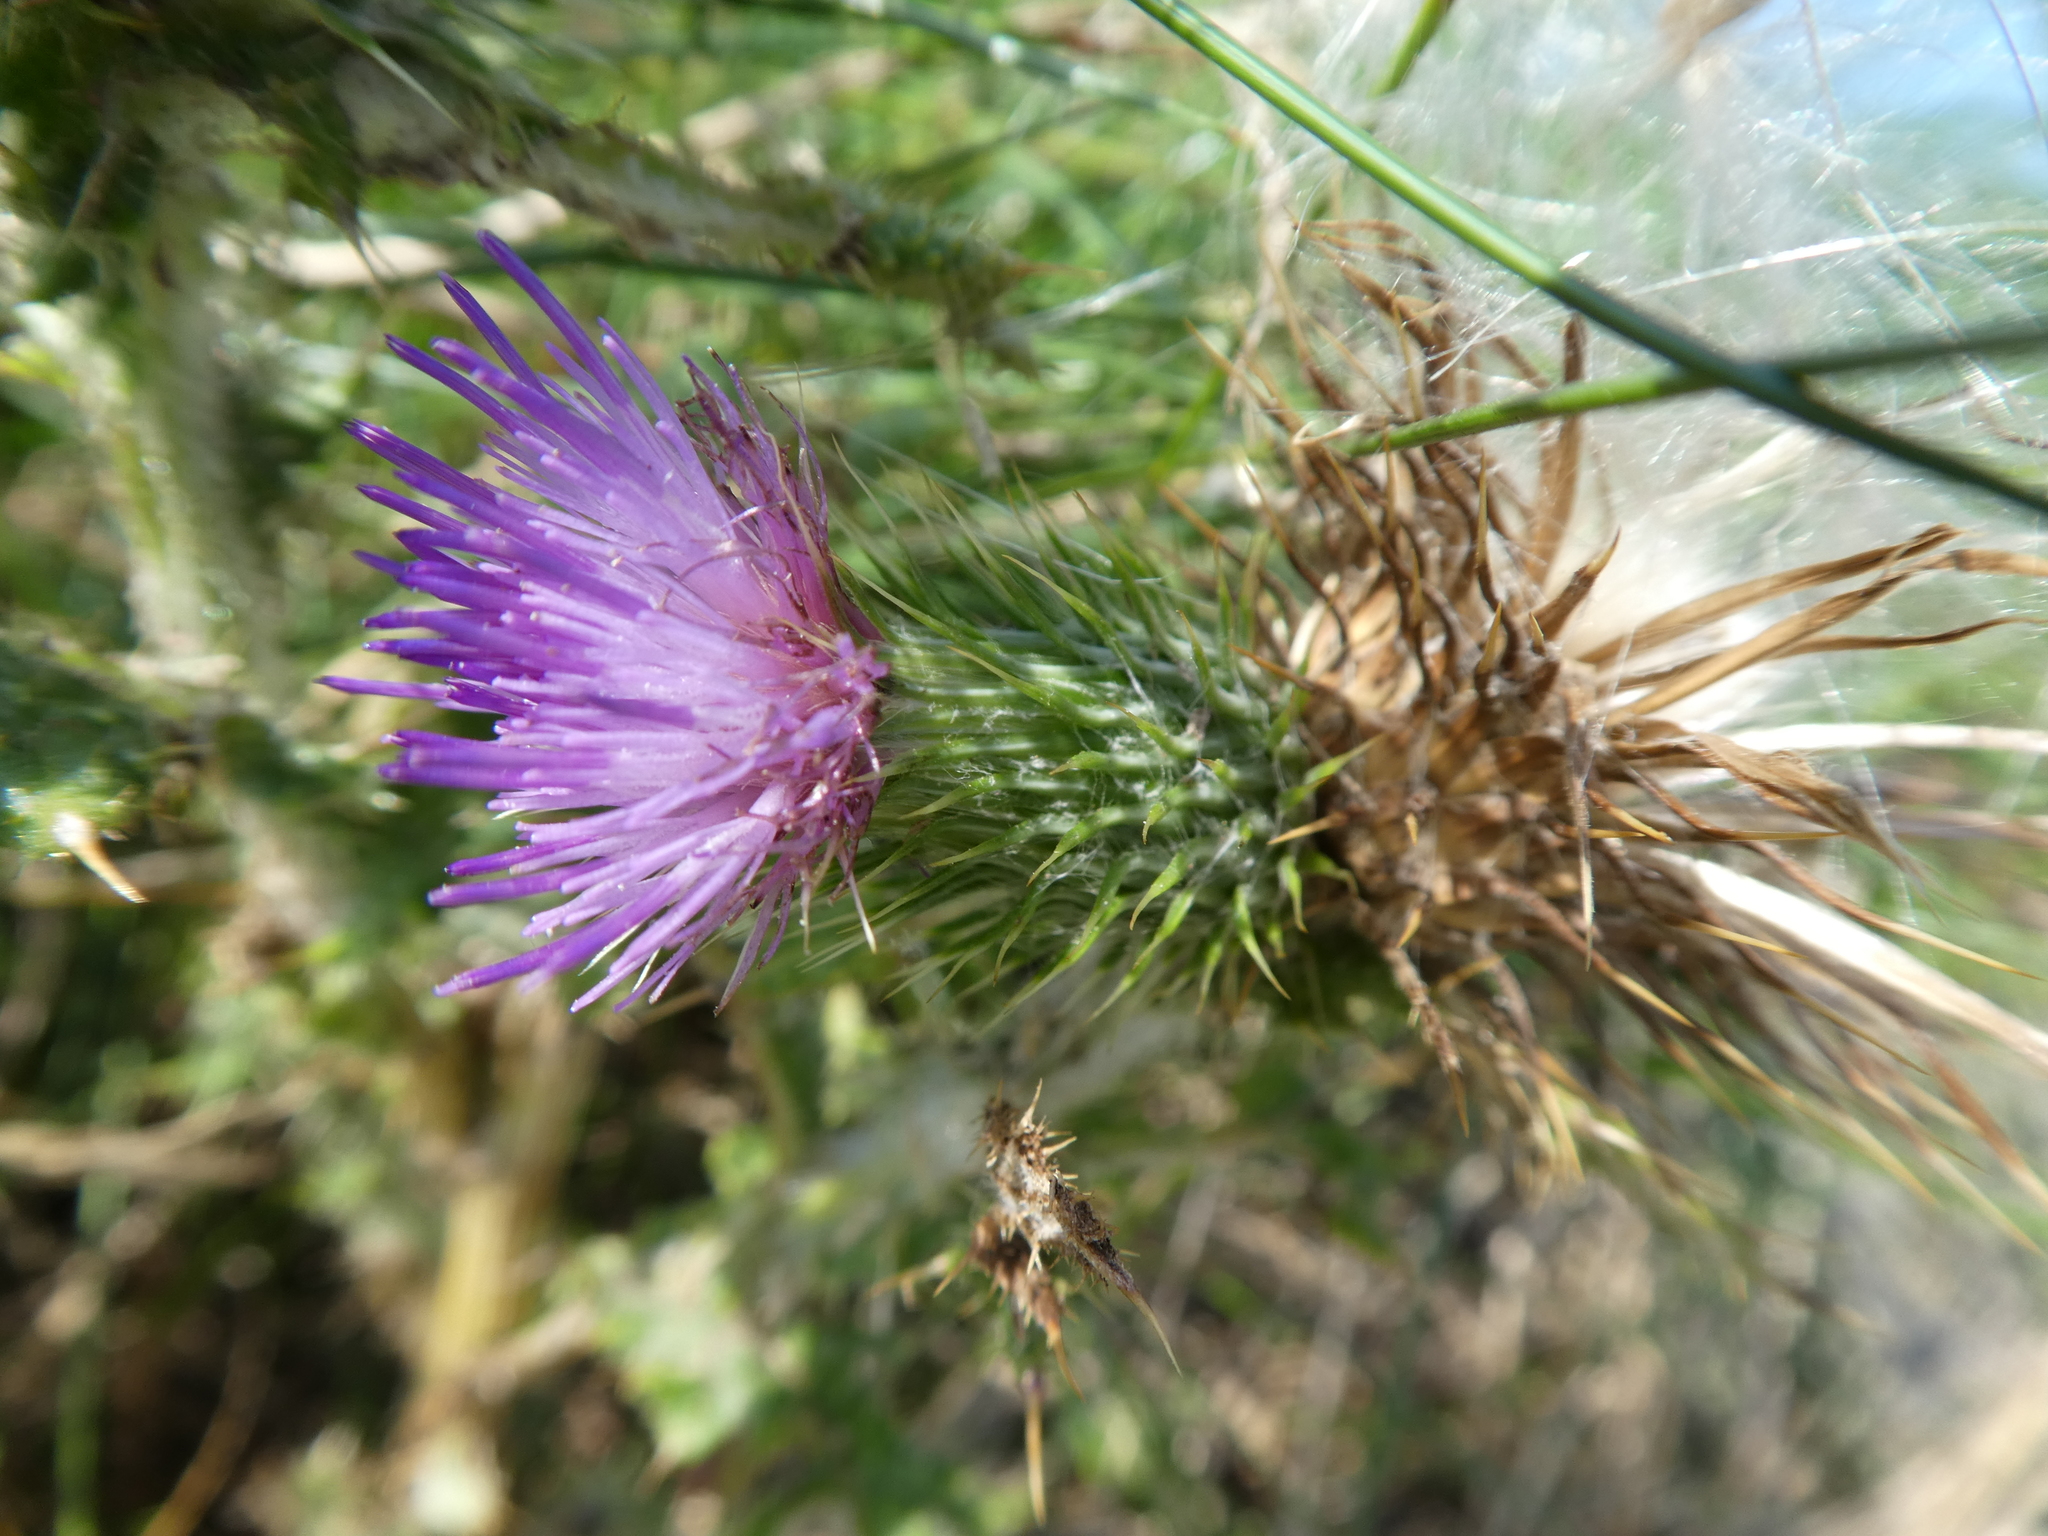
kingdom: Plantae
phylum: Tracheophyta
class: Magnoliopsida
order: Asterales
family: Asteraceae
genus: Cirsium
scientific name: Cirsium vulgare
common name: Bull thistle
